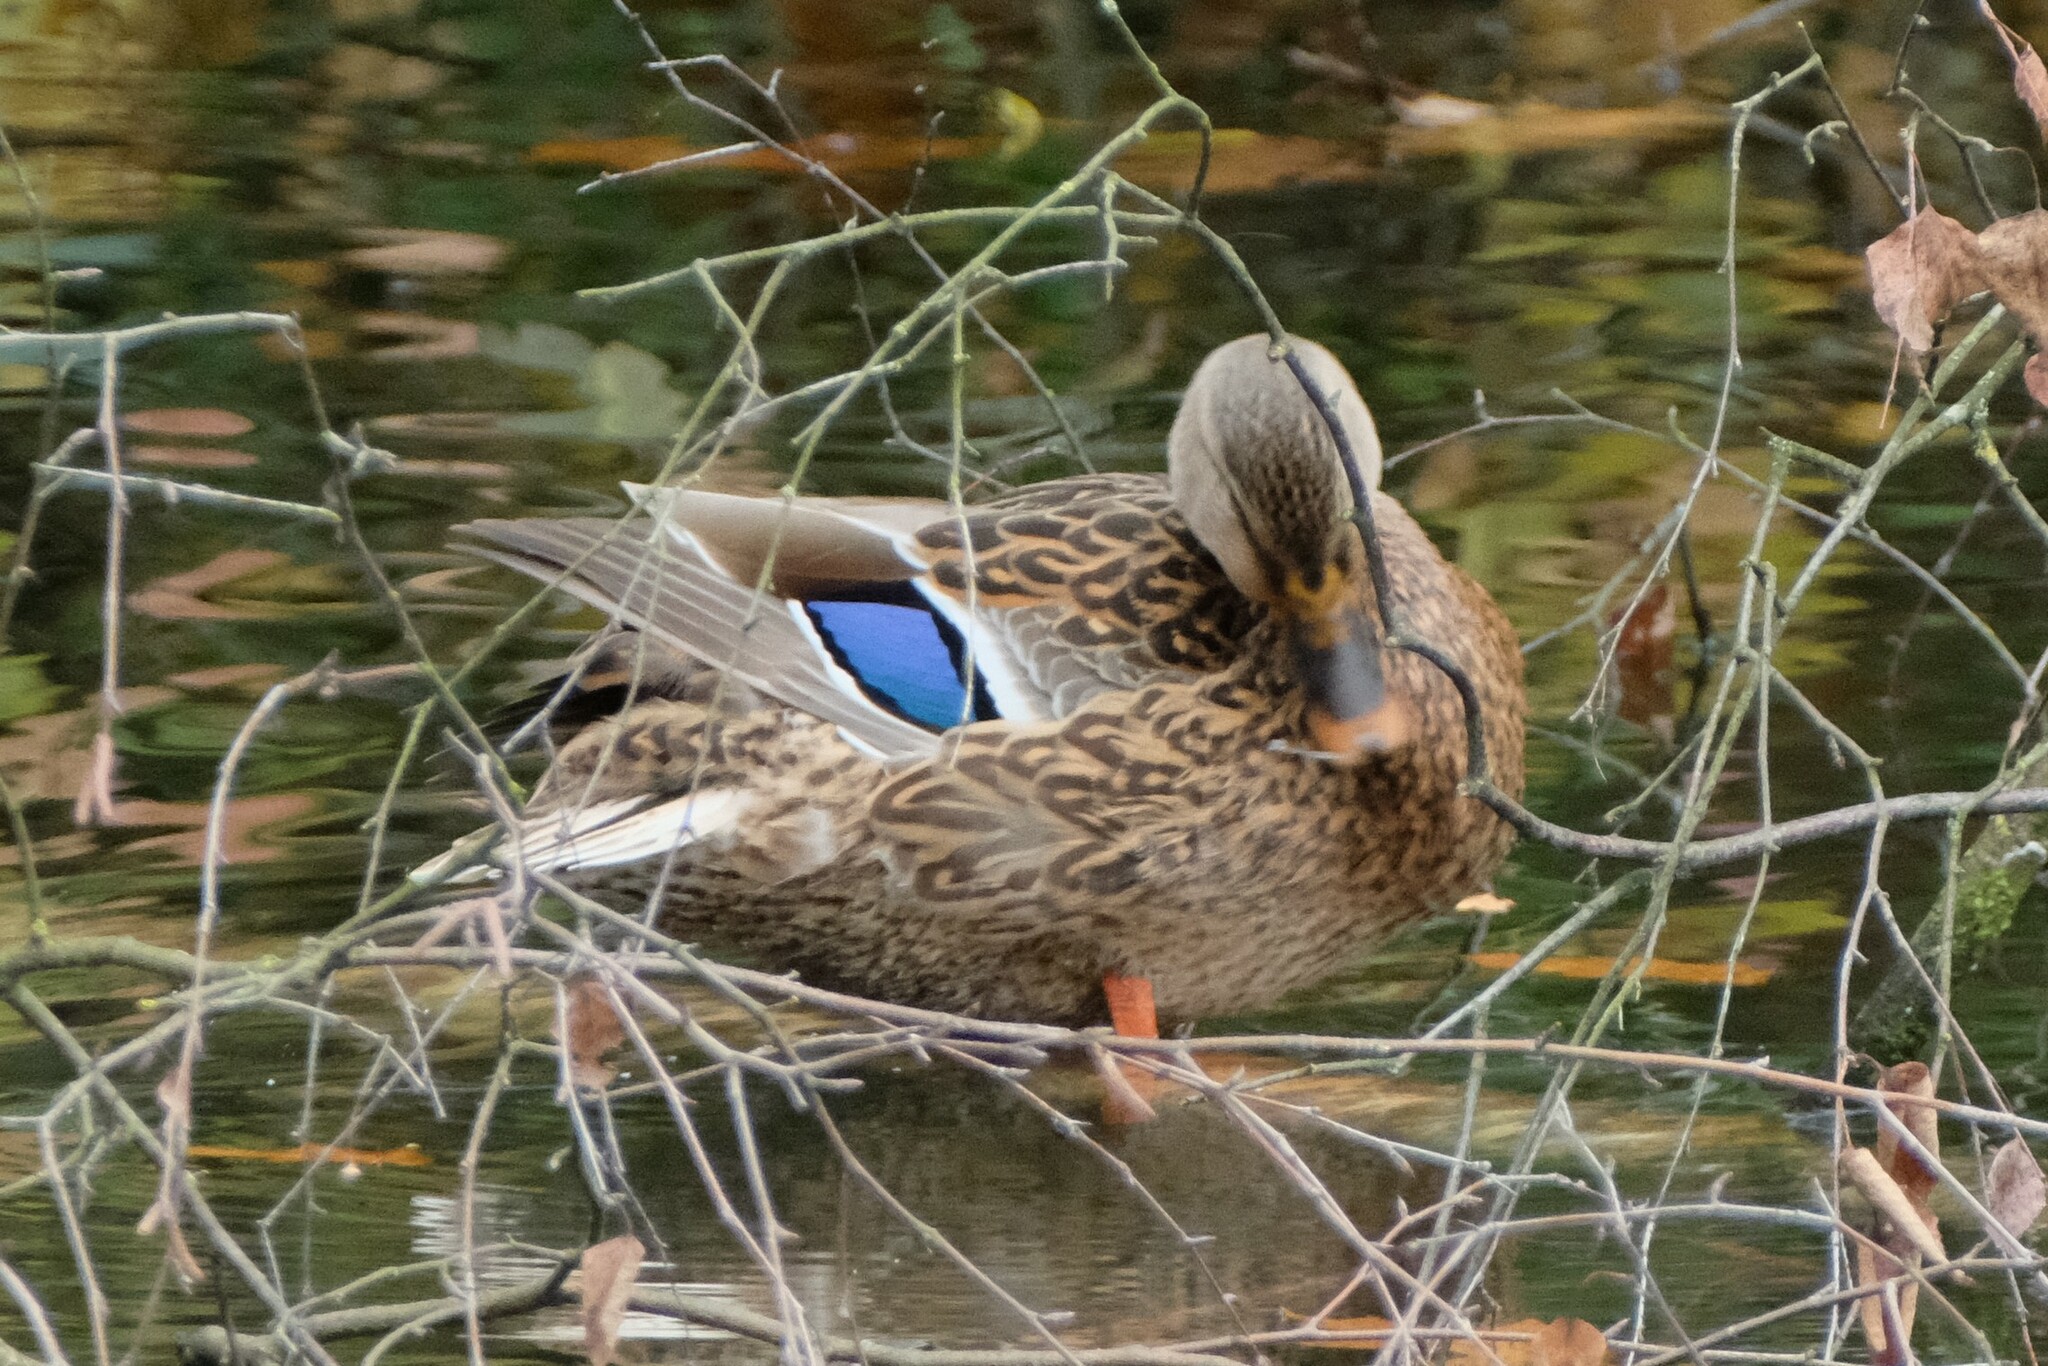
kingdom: Animalia
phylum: Chordata
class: Aves
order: Anseriformes
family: Anatidae
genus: Anas
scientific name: Anas platyrhynchos
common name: Mallard
